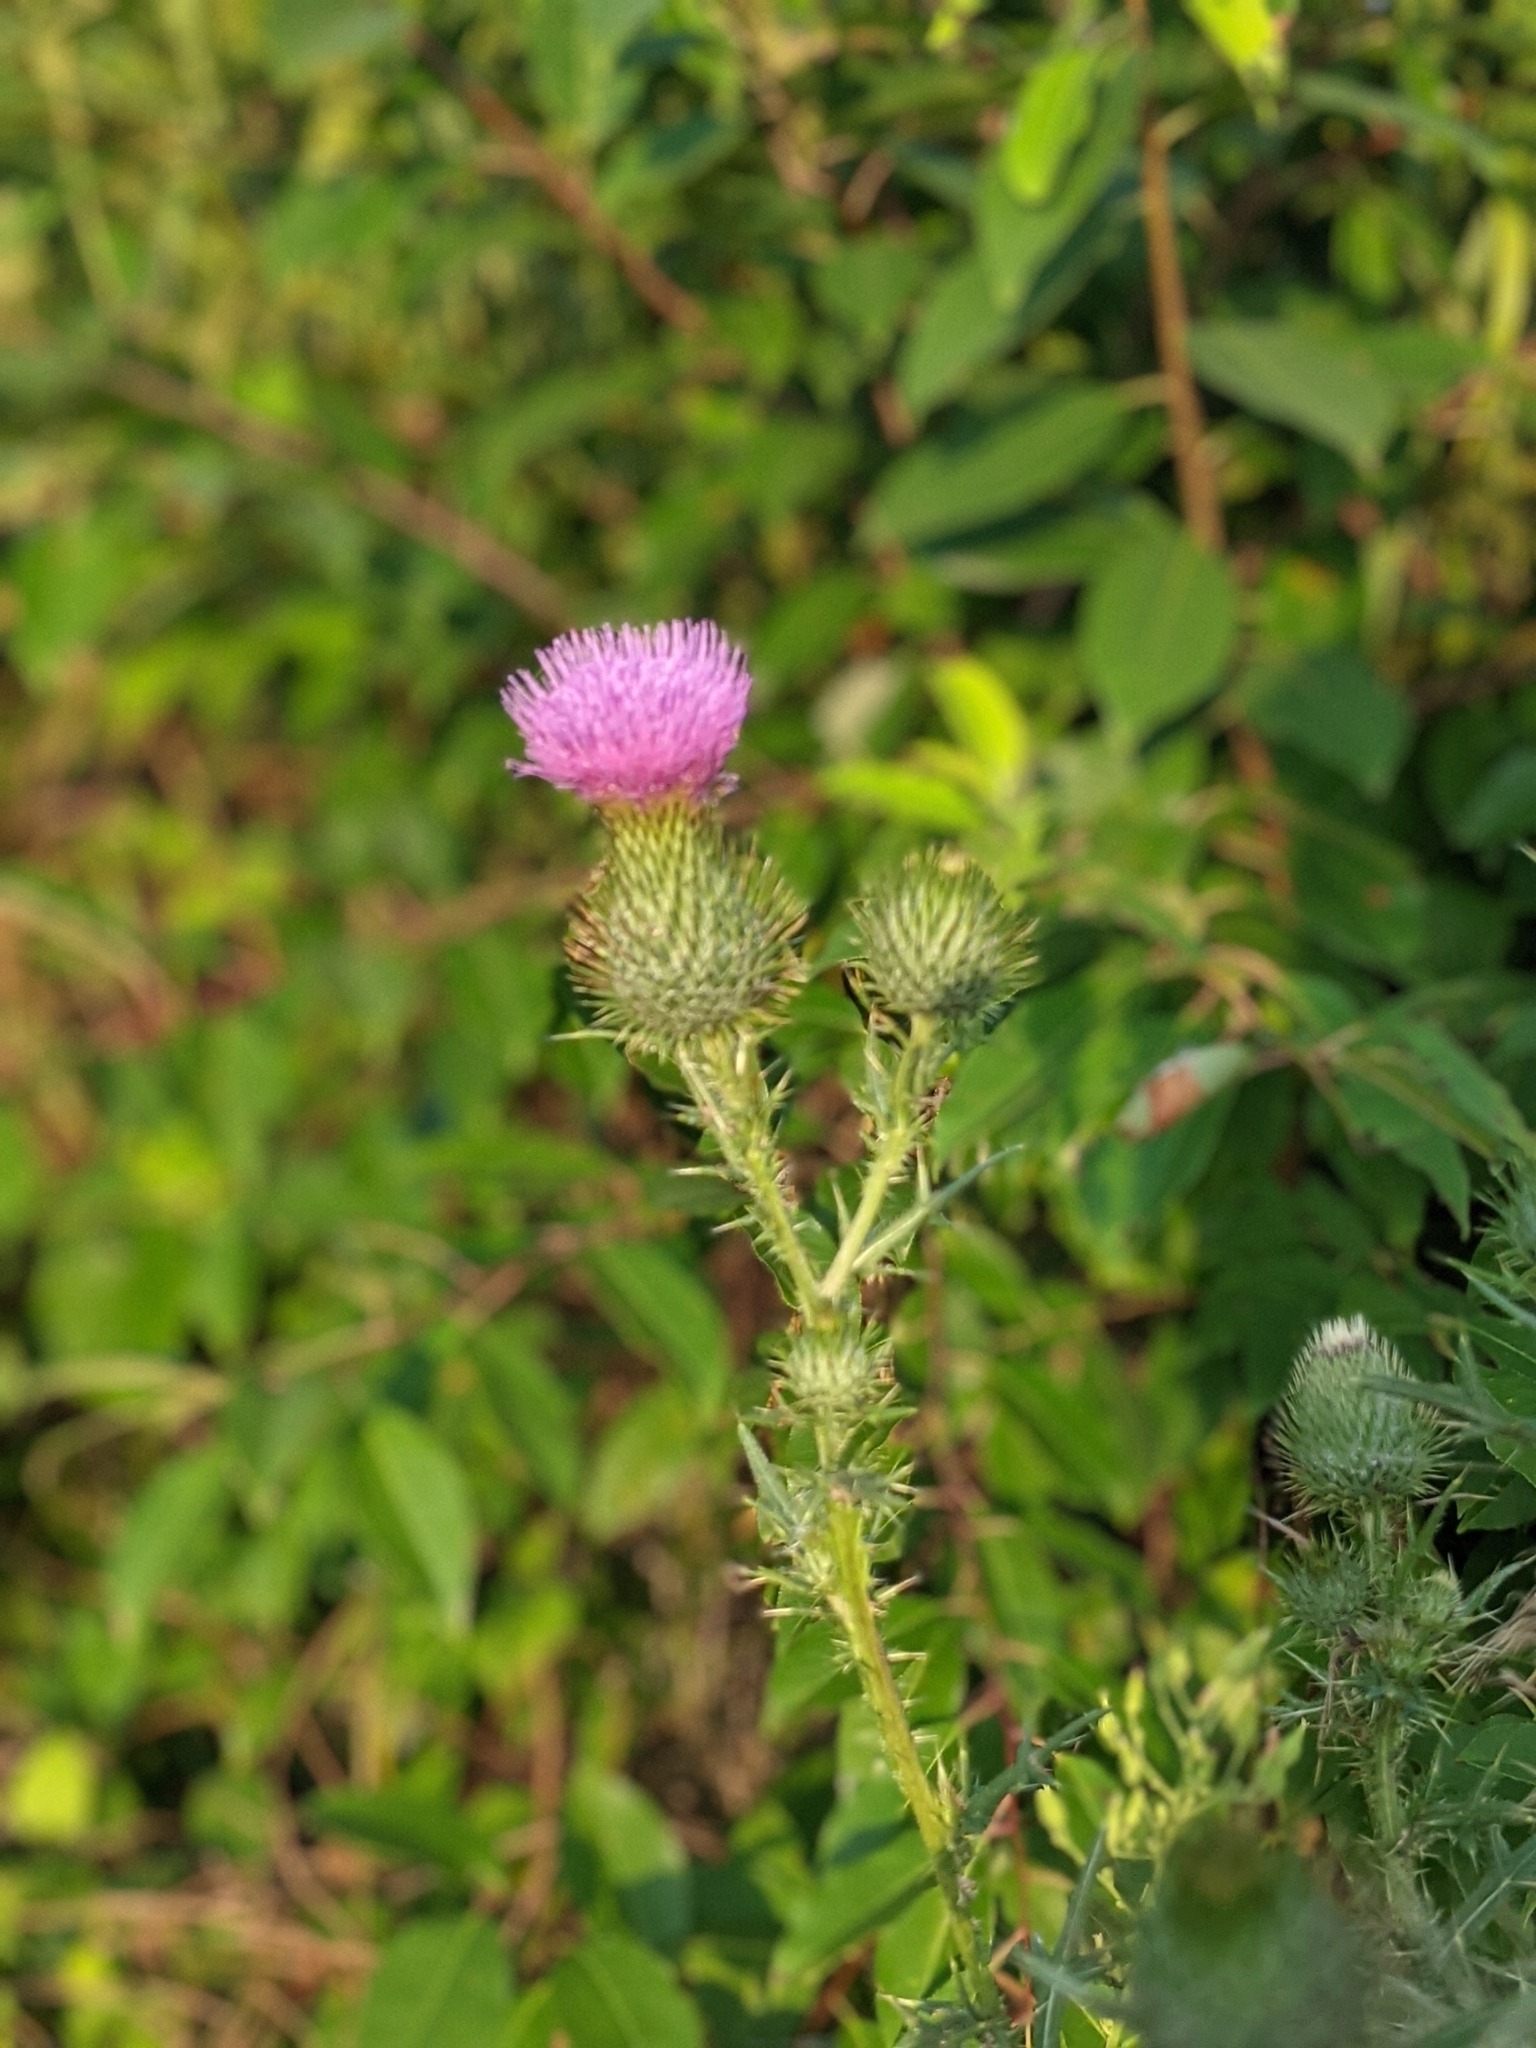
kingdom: Plantae
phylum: Tracheophyta
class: Magnoliopsida
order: Asterales
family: Asteraceae
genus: Cirsium
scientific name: Cirsium vulgare
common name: Bull thistle
